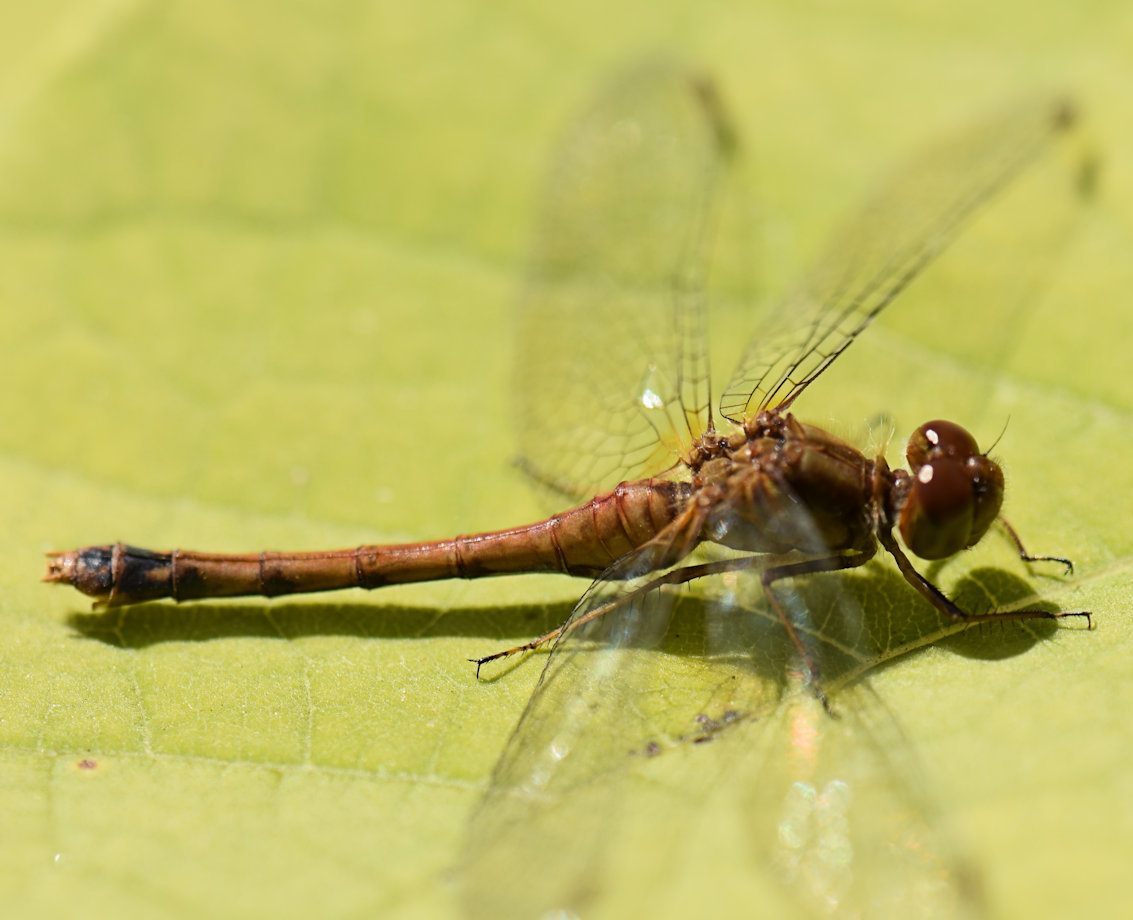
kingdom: Animalia
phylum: Arthropoda
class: Insecta
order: Odonata
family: Libellulidae
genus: Sympetrum
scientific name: Sympetrum vicinum
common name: Autumn meadowhawk
